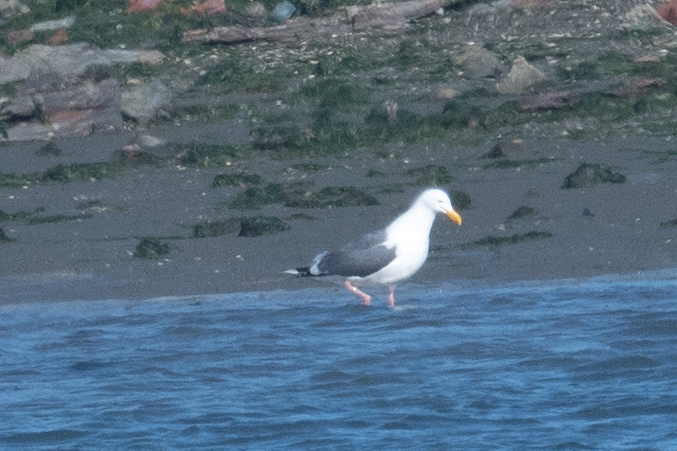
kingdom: Animalia
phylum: Chordata
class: Aves
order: Charadriiformes
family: Laridae
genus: Larus
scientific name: Larus occidentalis
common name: Western gull
